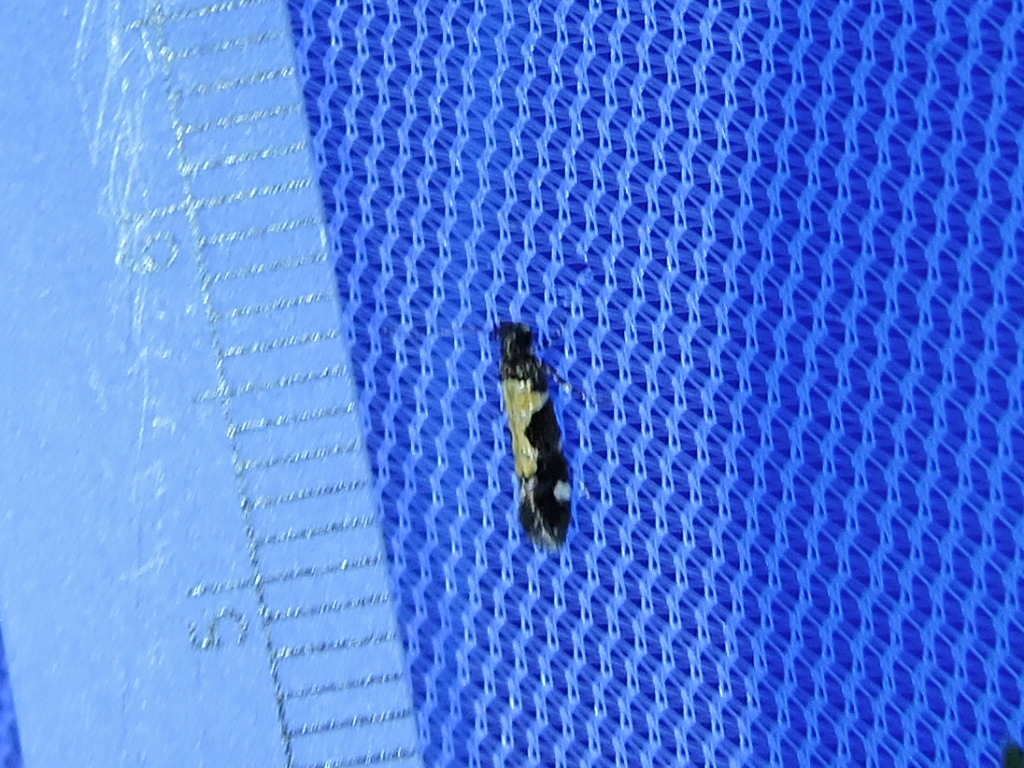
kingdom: Animalia
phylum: Arthropoda
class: Insecta
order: Lepidoptera
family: Gelechiidae
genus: Stegasta
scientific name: Stegasta bosqueella
